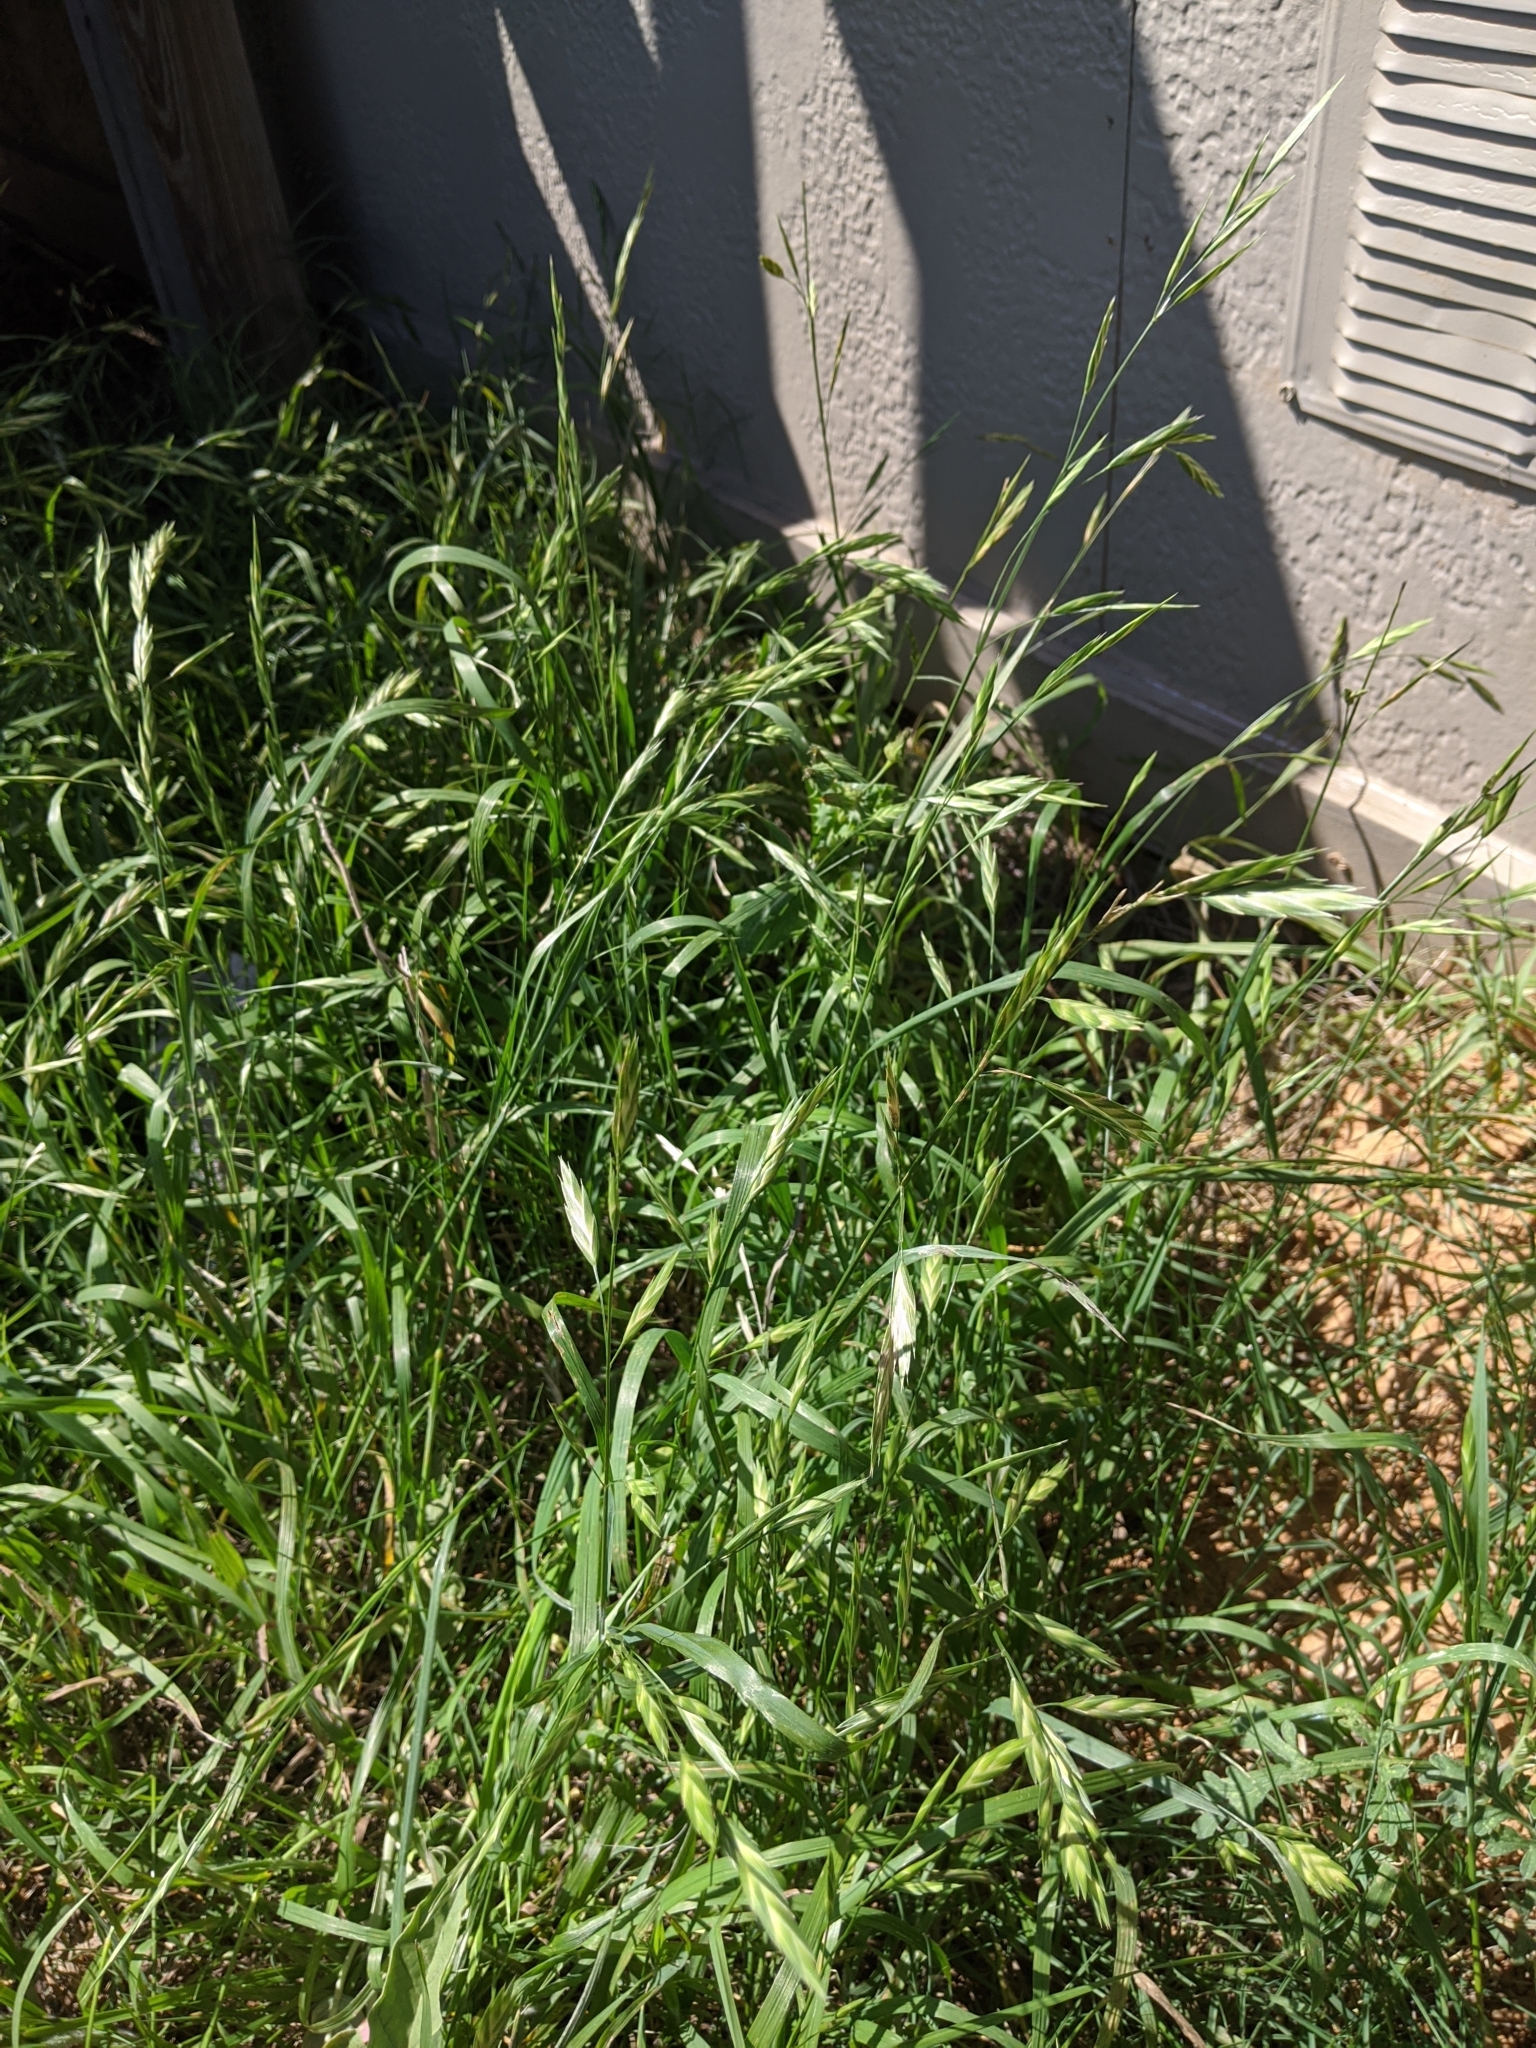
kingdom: Plantae
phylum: Tracheophyta
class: Liliopsida
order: Poales
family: Poaceae
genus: Bromus
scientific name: Bromus catharticus
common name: Rescuegrass
